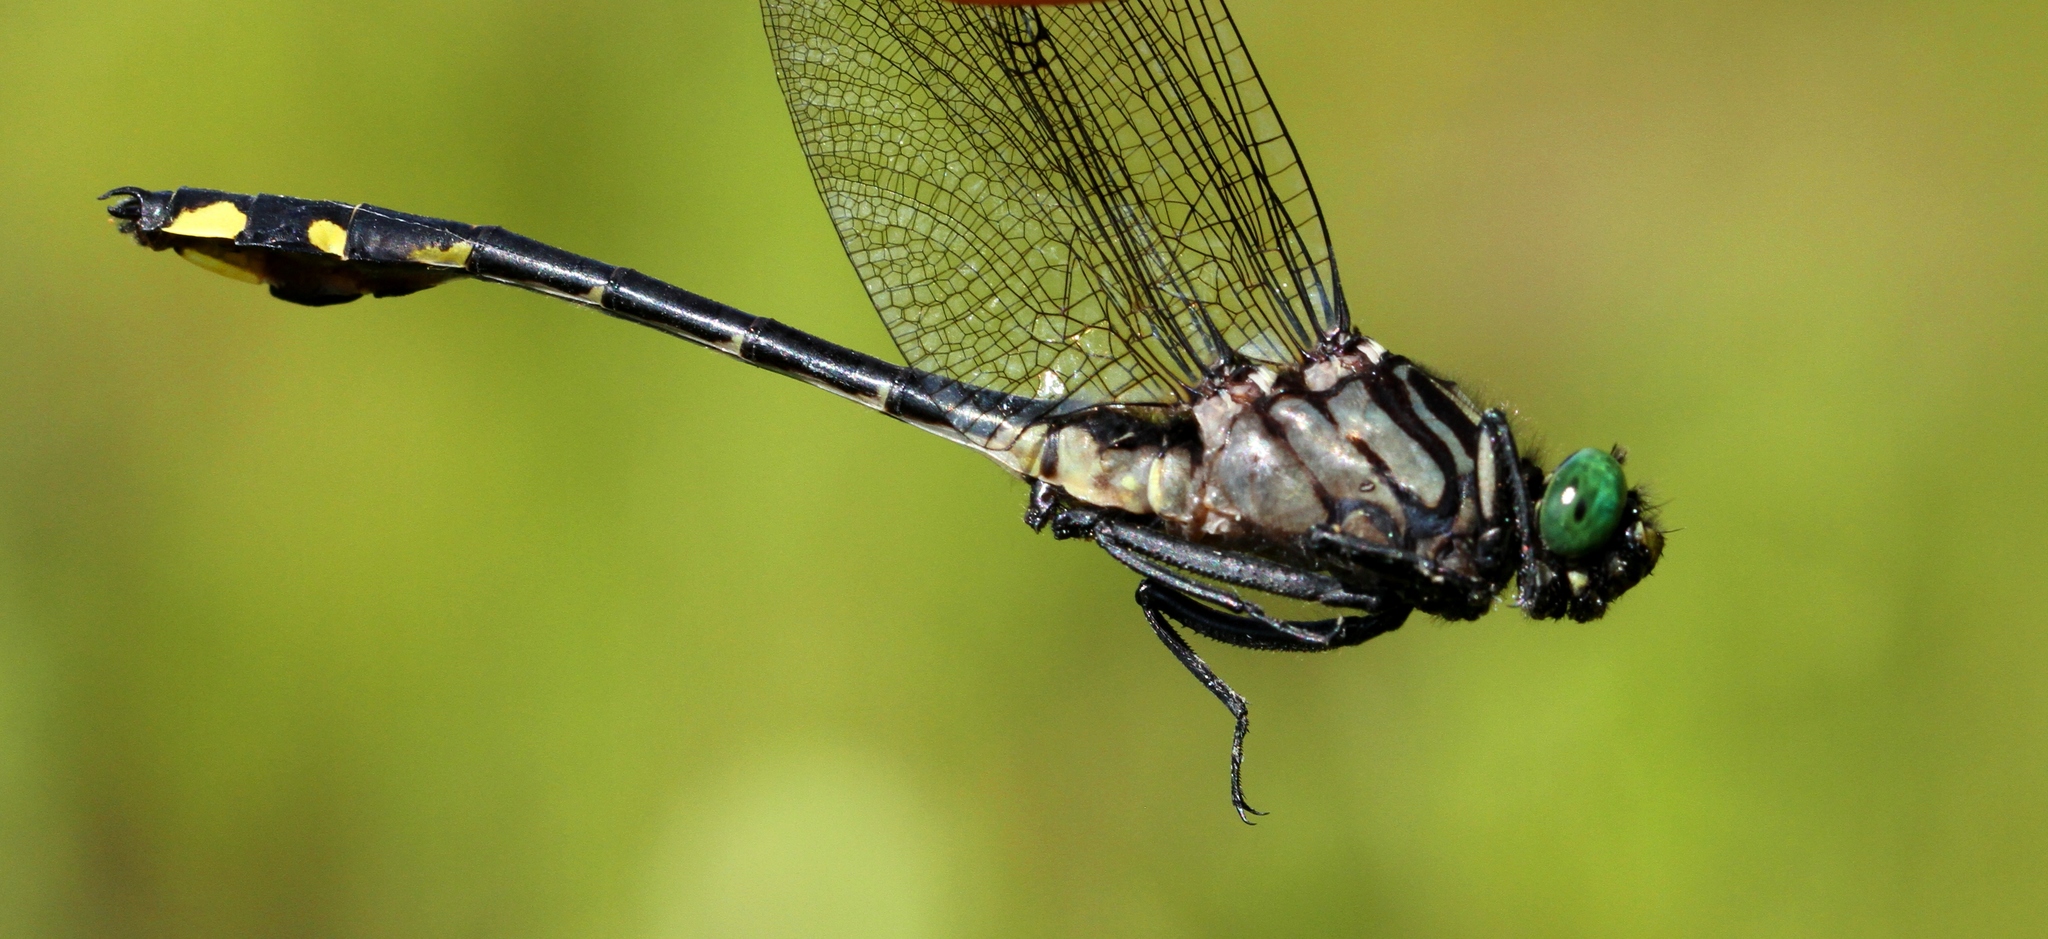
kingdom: Animalia
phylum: Arthropoda
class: Insecta
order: Odonata
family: Gomphidae
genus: Gomphurus
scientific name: Gomphurus vastus
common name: Cobra clubtail
